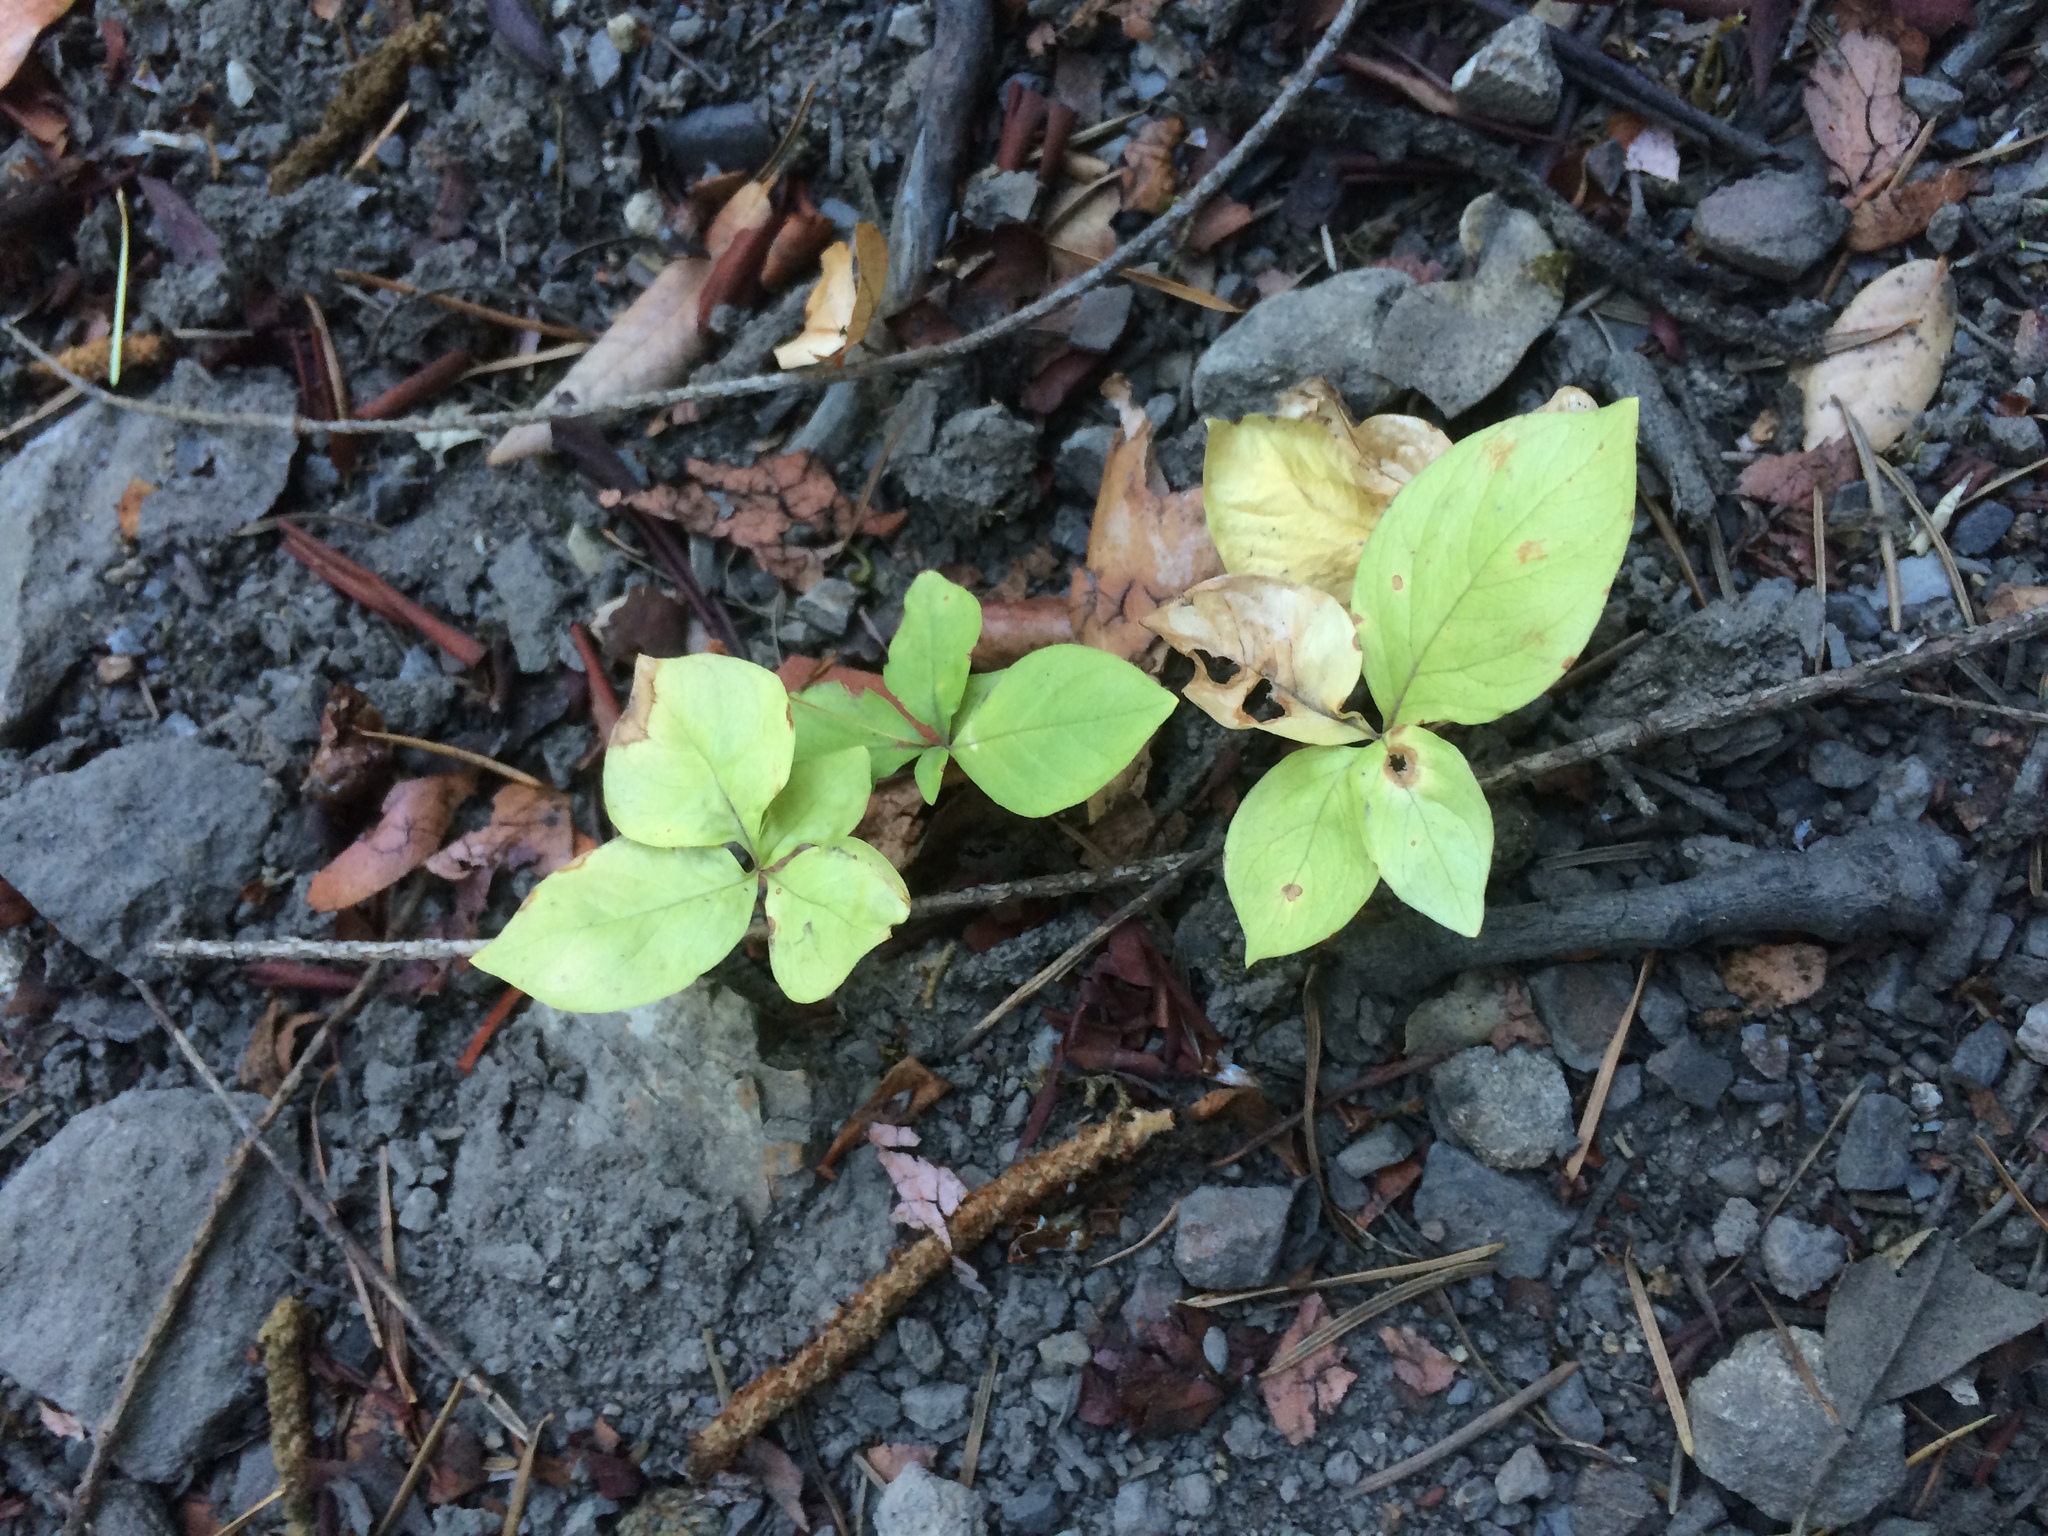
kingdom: Plantae
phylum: Tracheophyta
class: Magnoliopsida
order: Ericales
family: Primulaceae
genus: Lysimachia
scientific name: Lysimachia latifolia
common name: Pacific starflower
